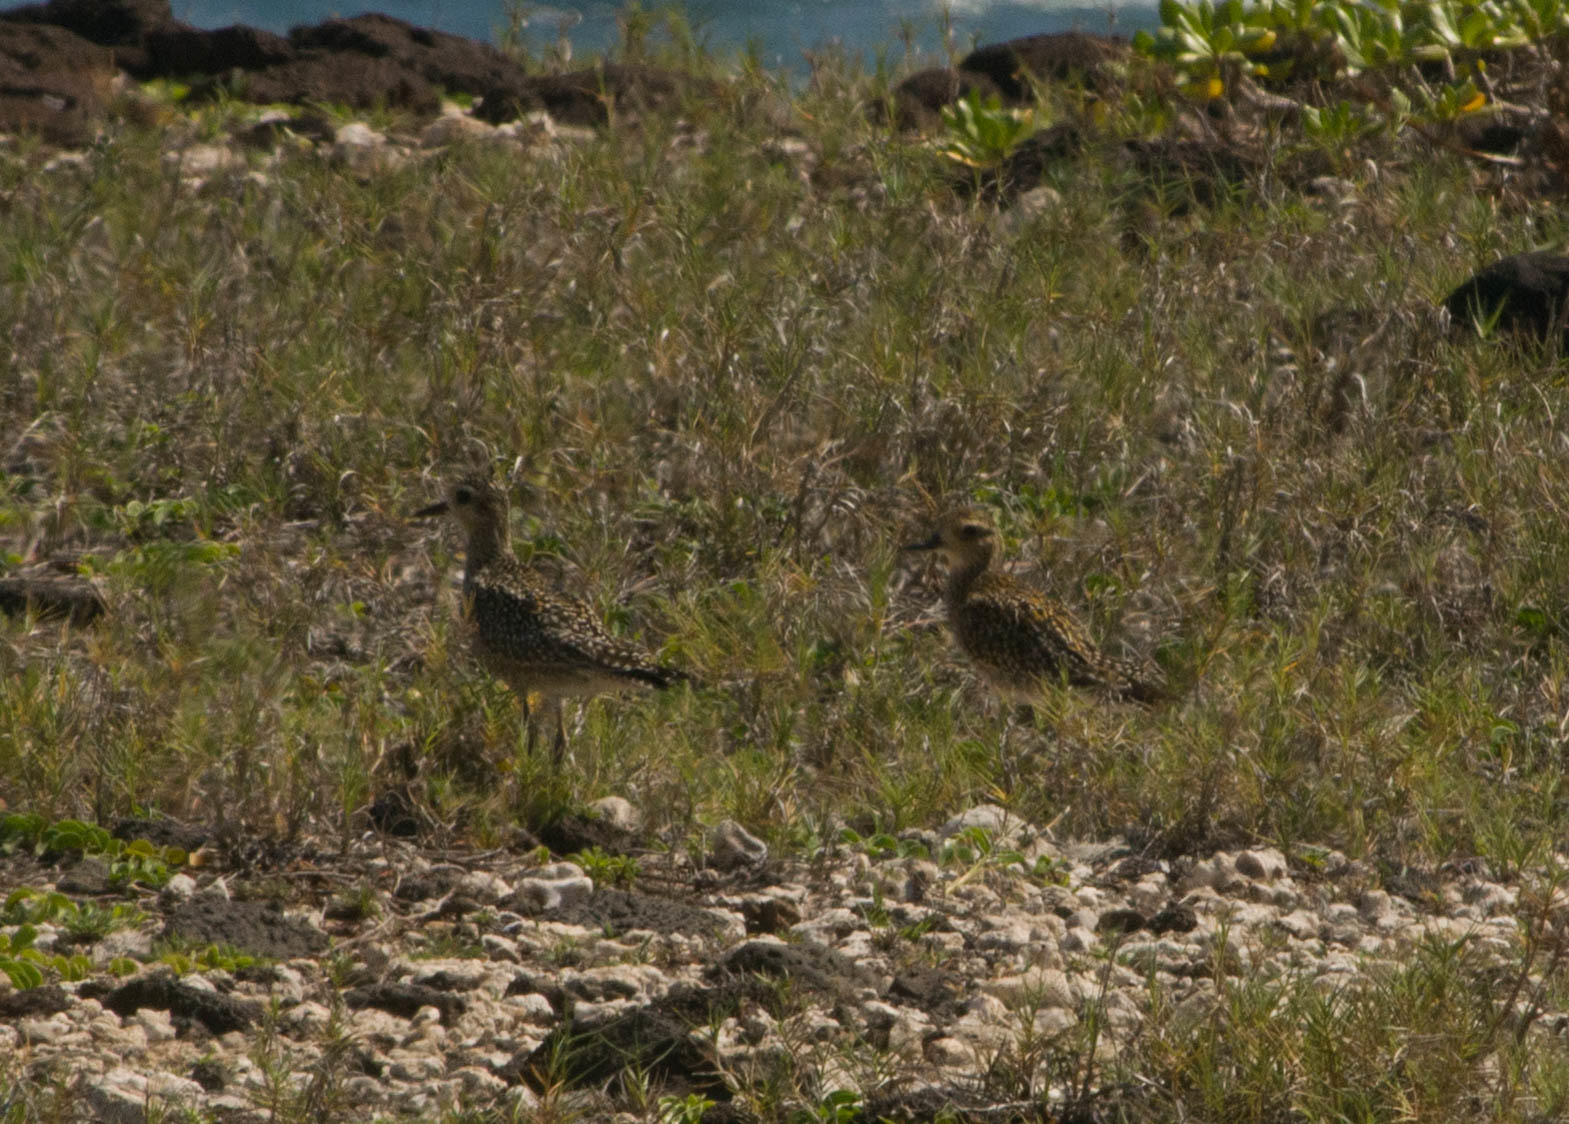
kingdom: Animalia
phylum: Chordata
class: Aves
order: Charadriiformes
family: Charadriidae
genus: Pluvialis
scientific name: Pluvialis fulva
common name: Pacific golden plover
